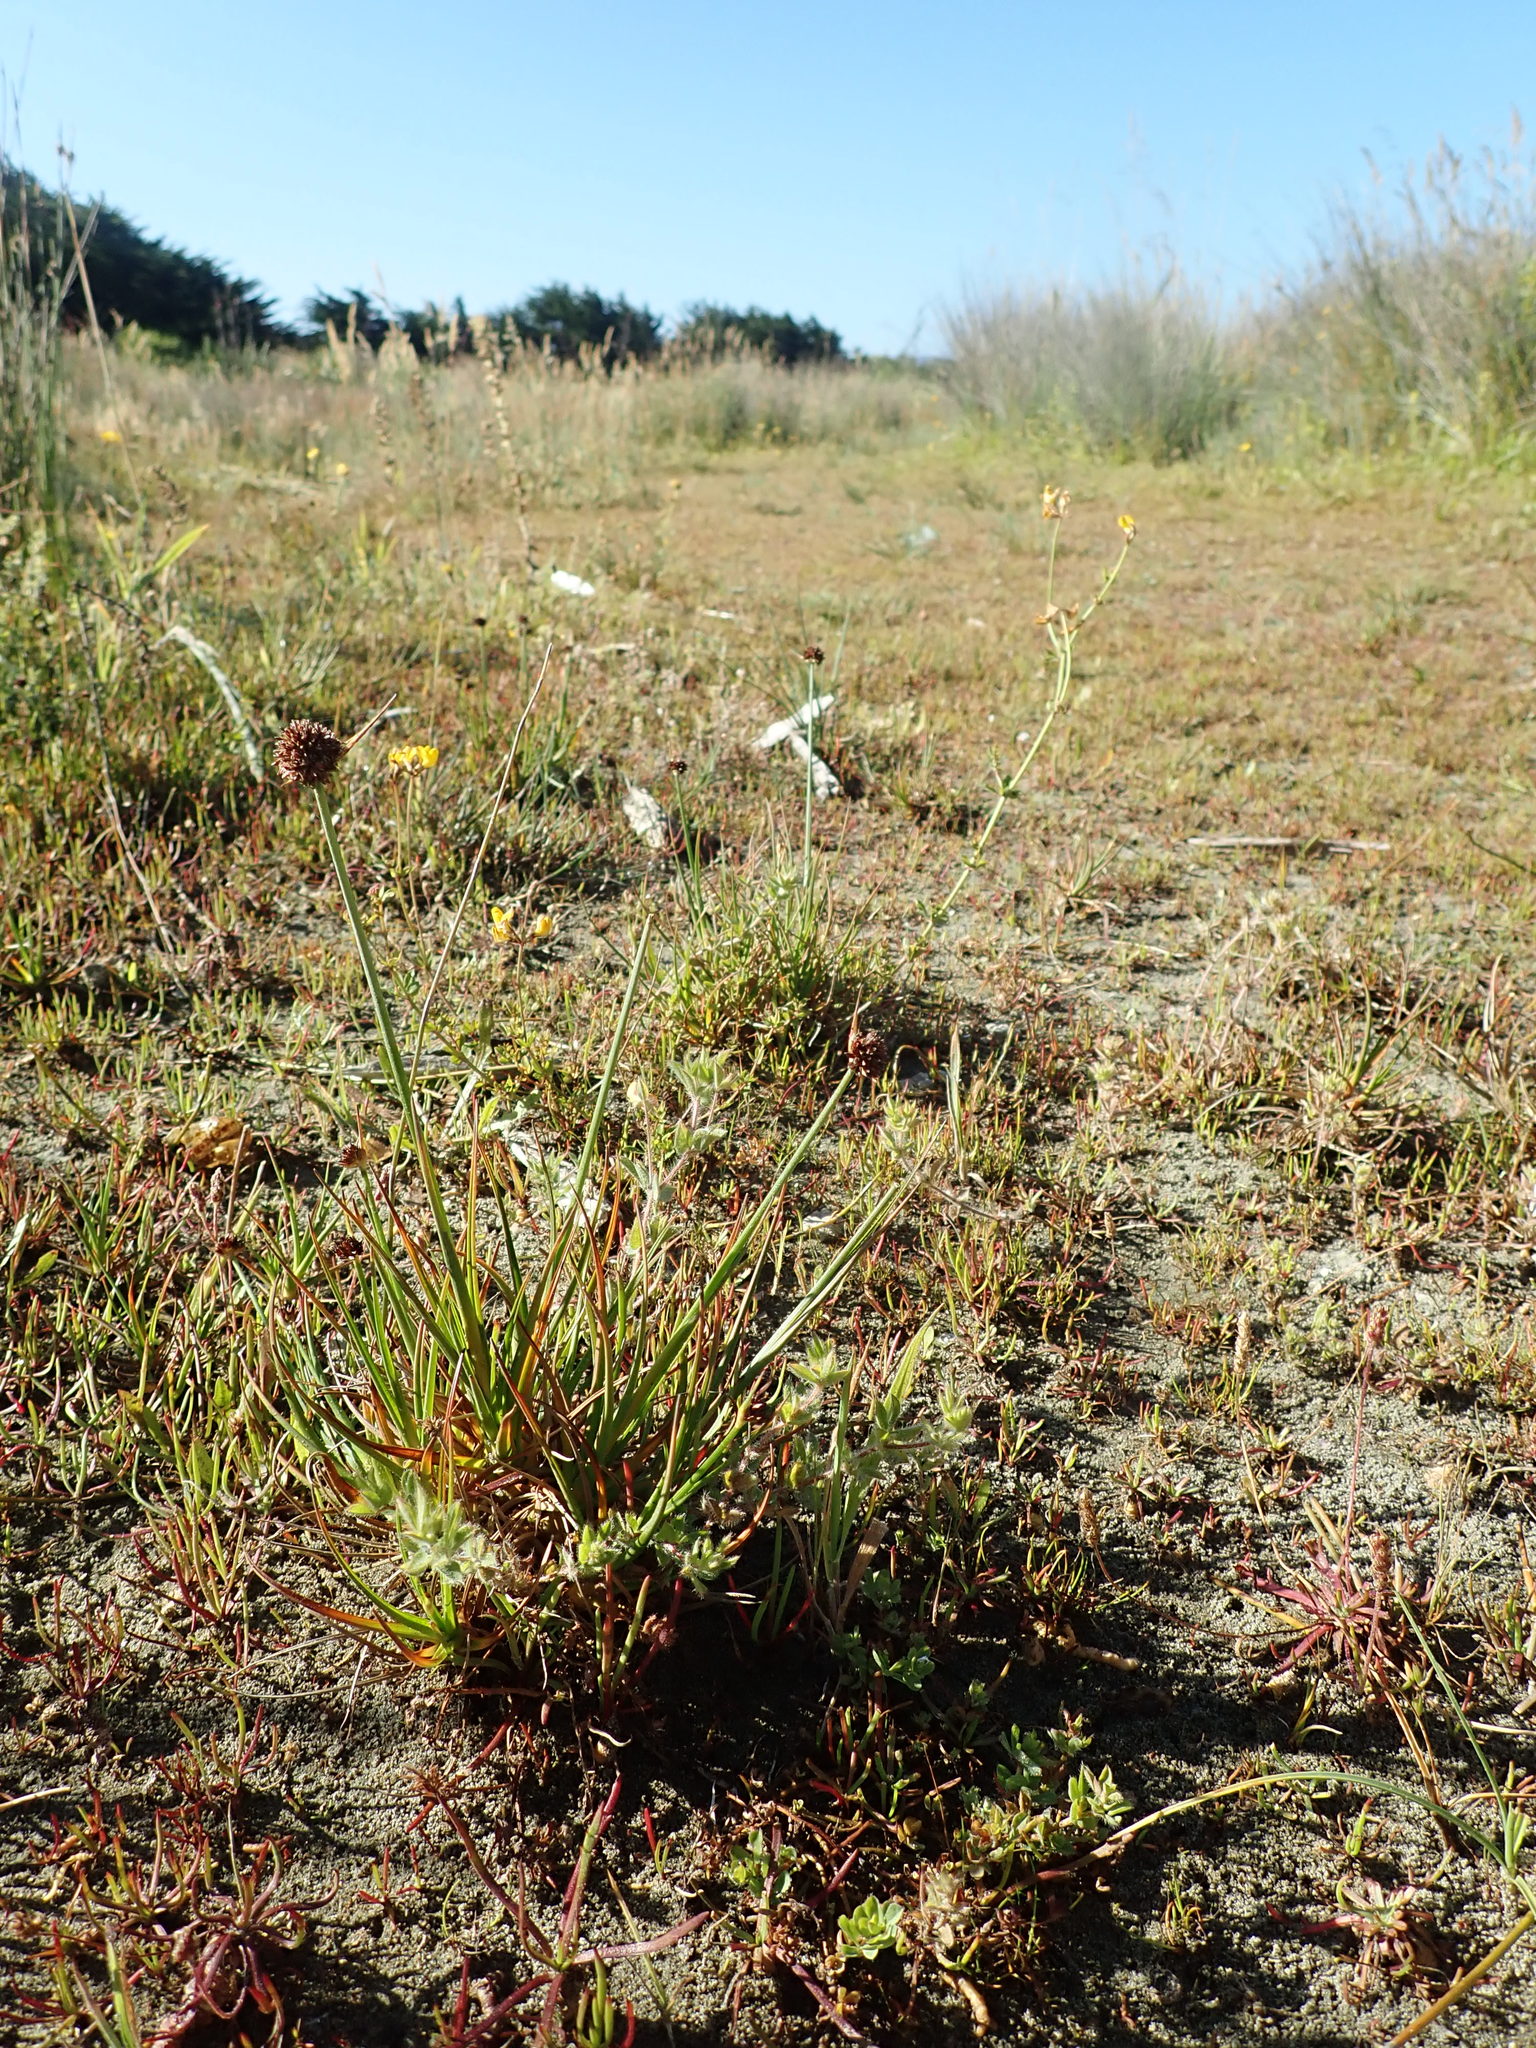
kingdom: Plantae
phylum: Tracheophyta
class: Liliopsida
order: Poales
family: Juncaceae
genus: Juncus
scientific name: Juncus caespiticius
